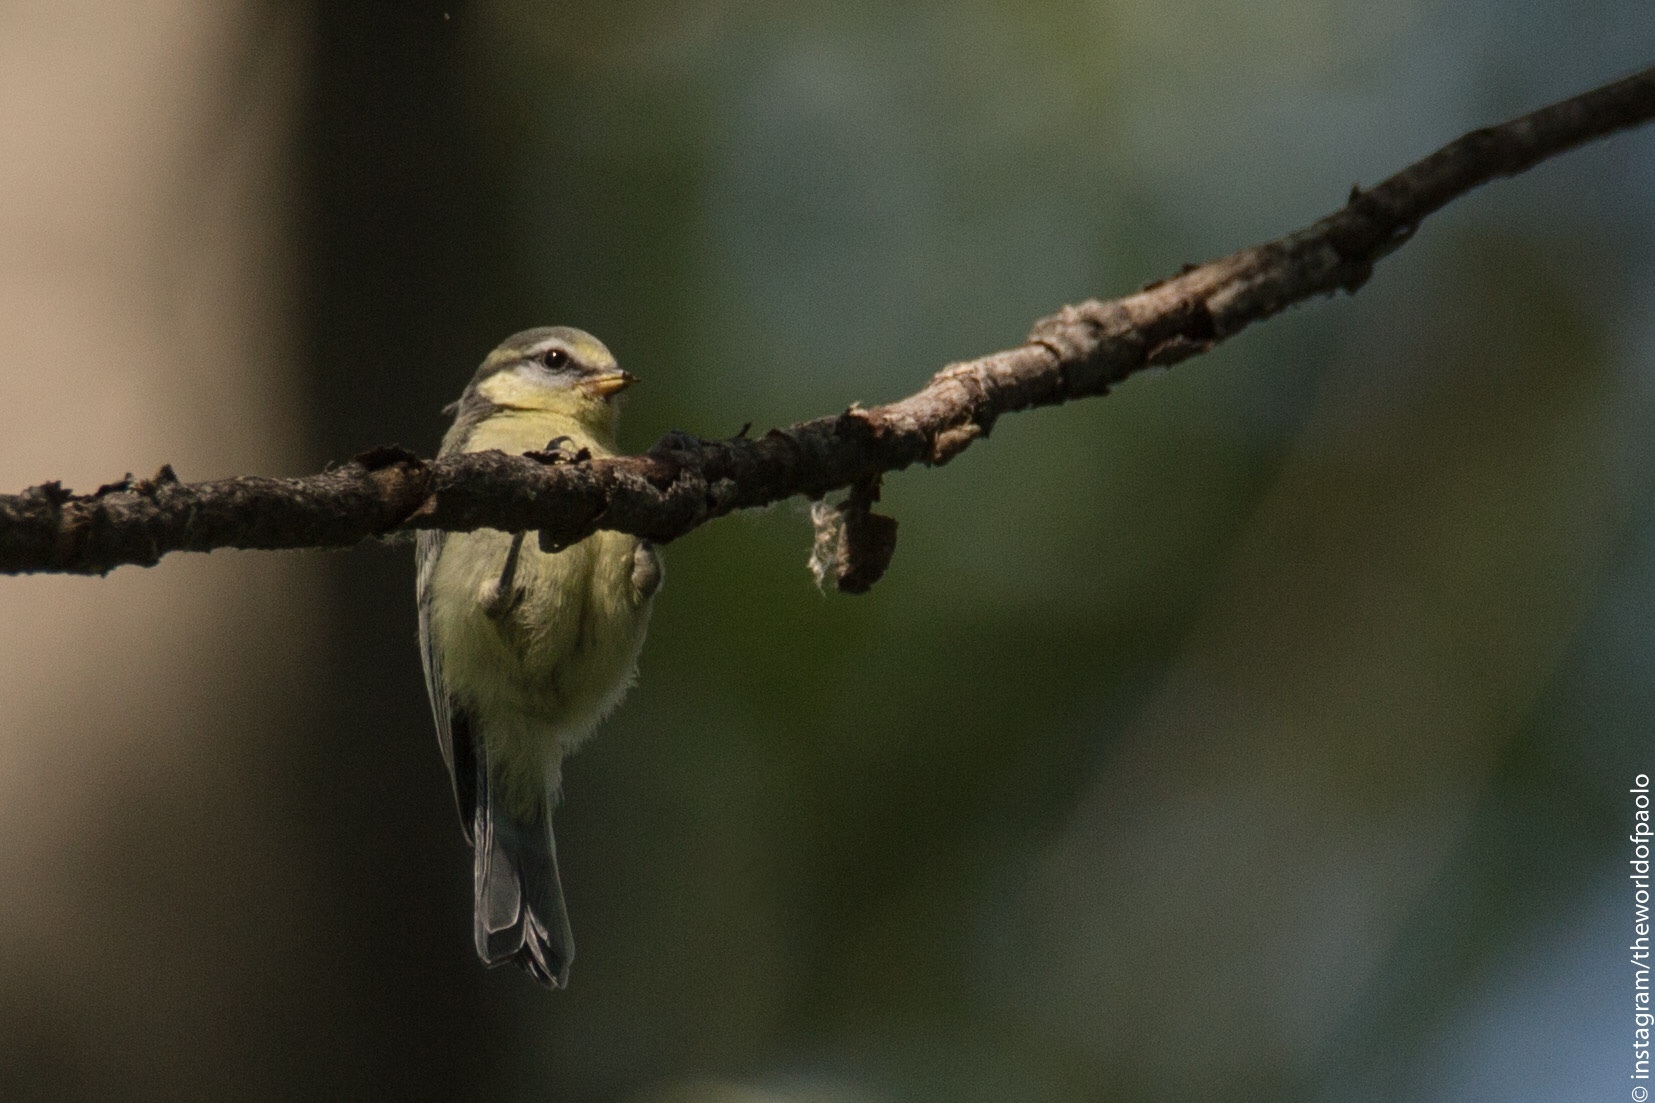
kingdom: Animalia
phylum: Chordata
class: Aves
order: Passeriformes
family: Paridae
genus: Cyanistes
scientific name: Cyanistes caeruleus
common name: Eurasian blue tit
